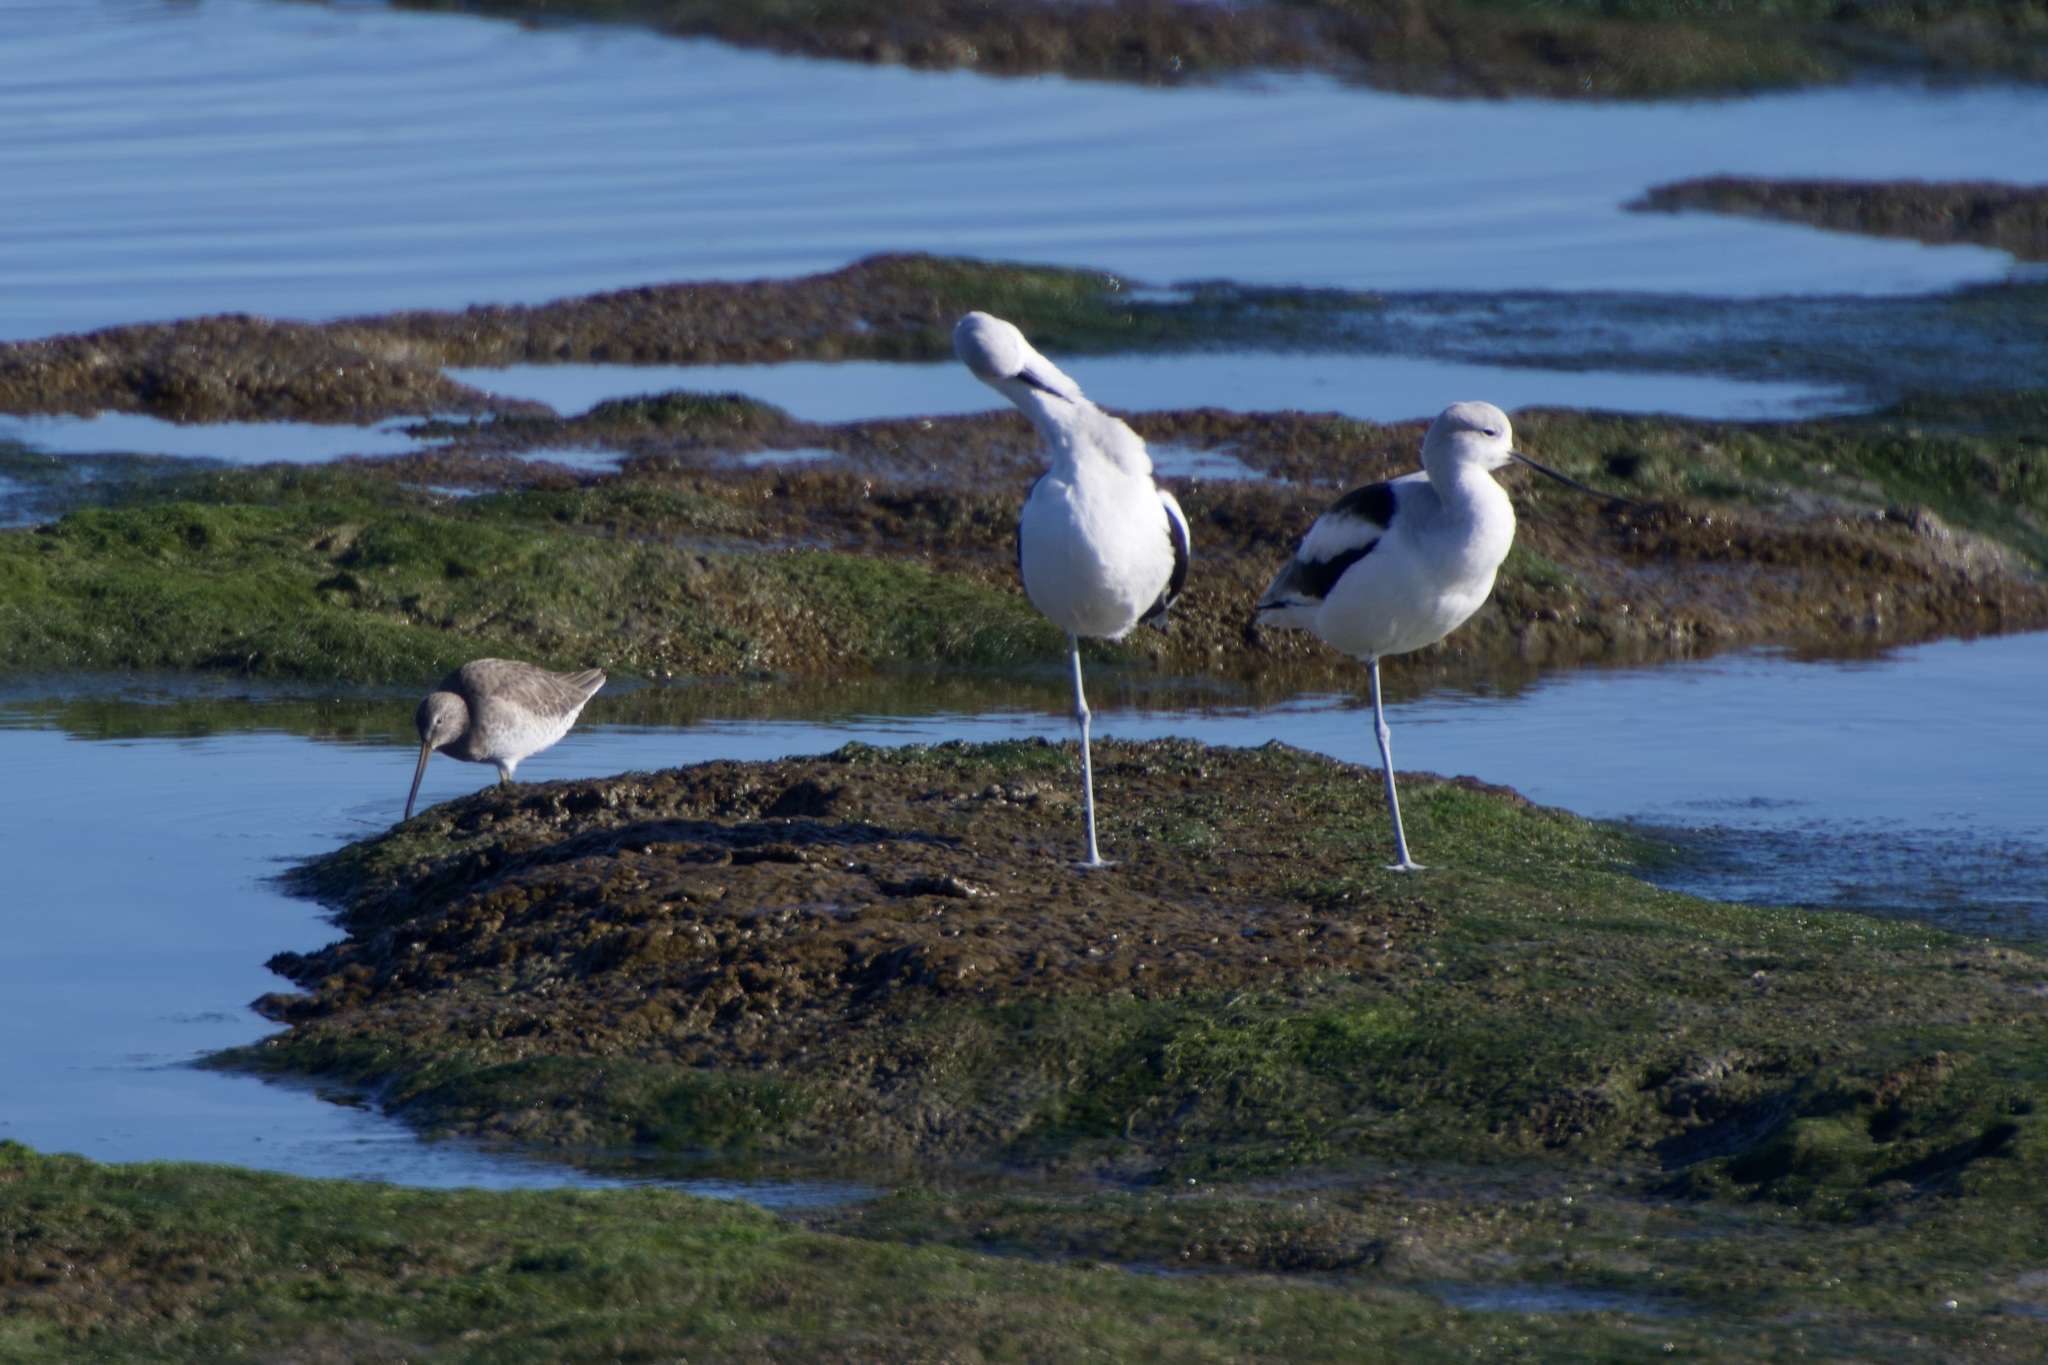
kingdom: Animalia
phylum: Chordata
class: Aves
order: Charadriiformes
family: Scolopacidae
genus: Limnodromus
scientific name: Limnodromus scolopaceus
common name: Long-billed dowitcher
